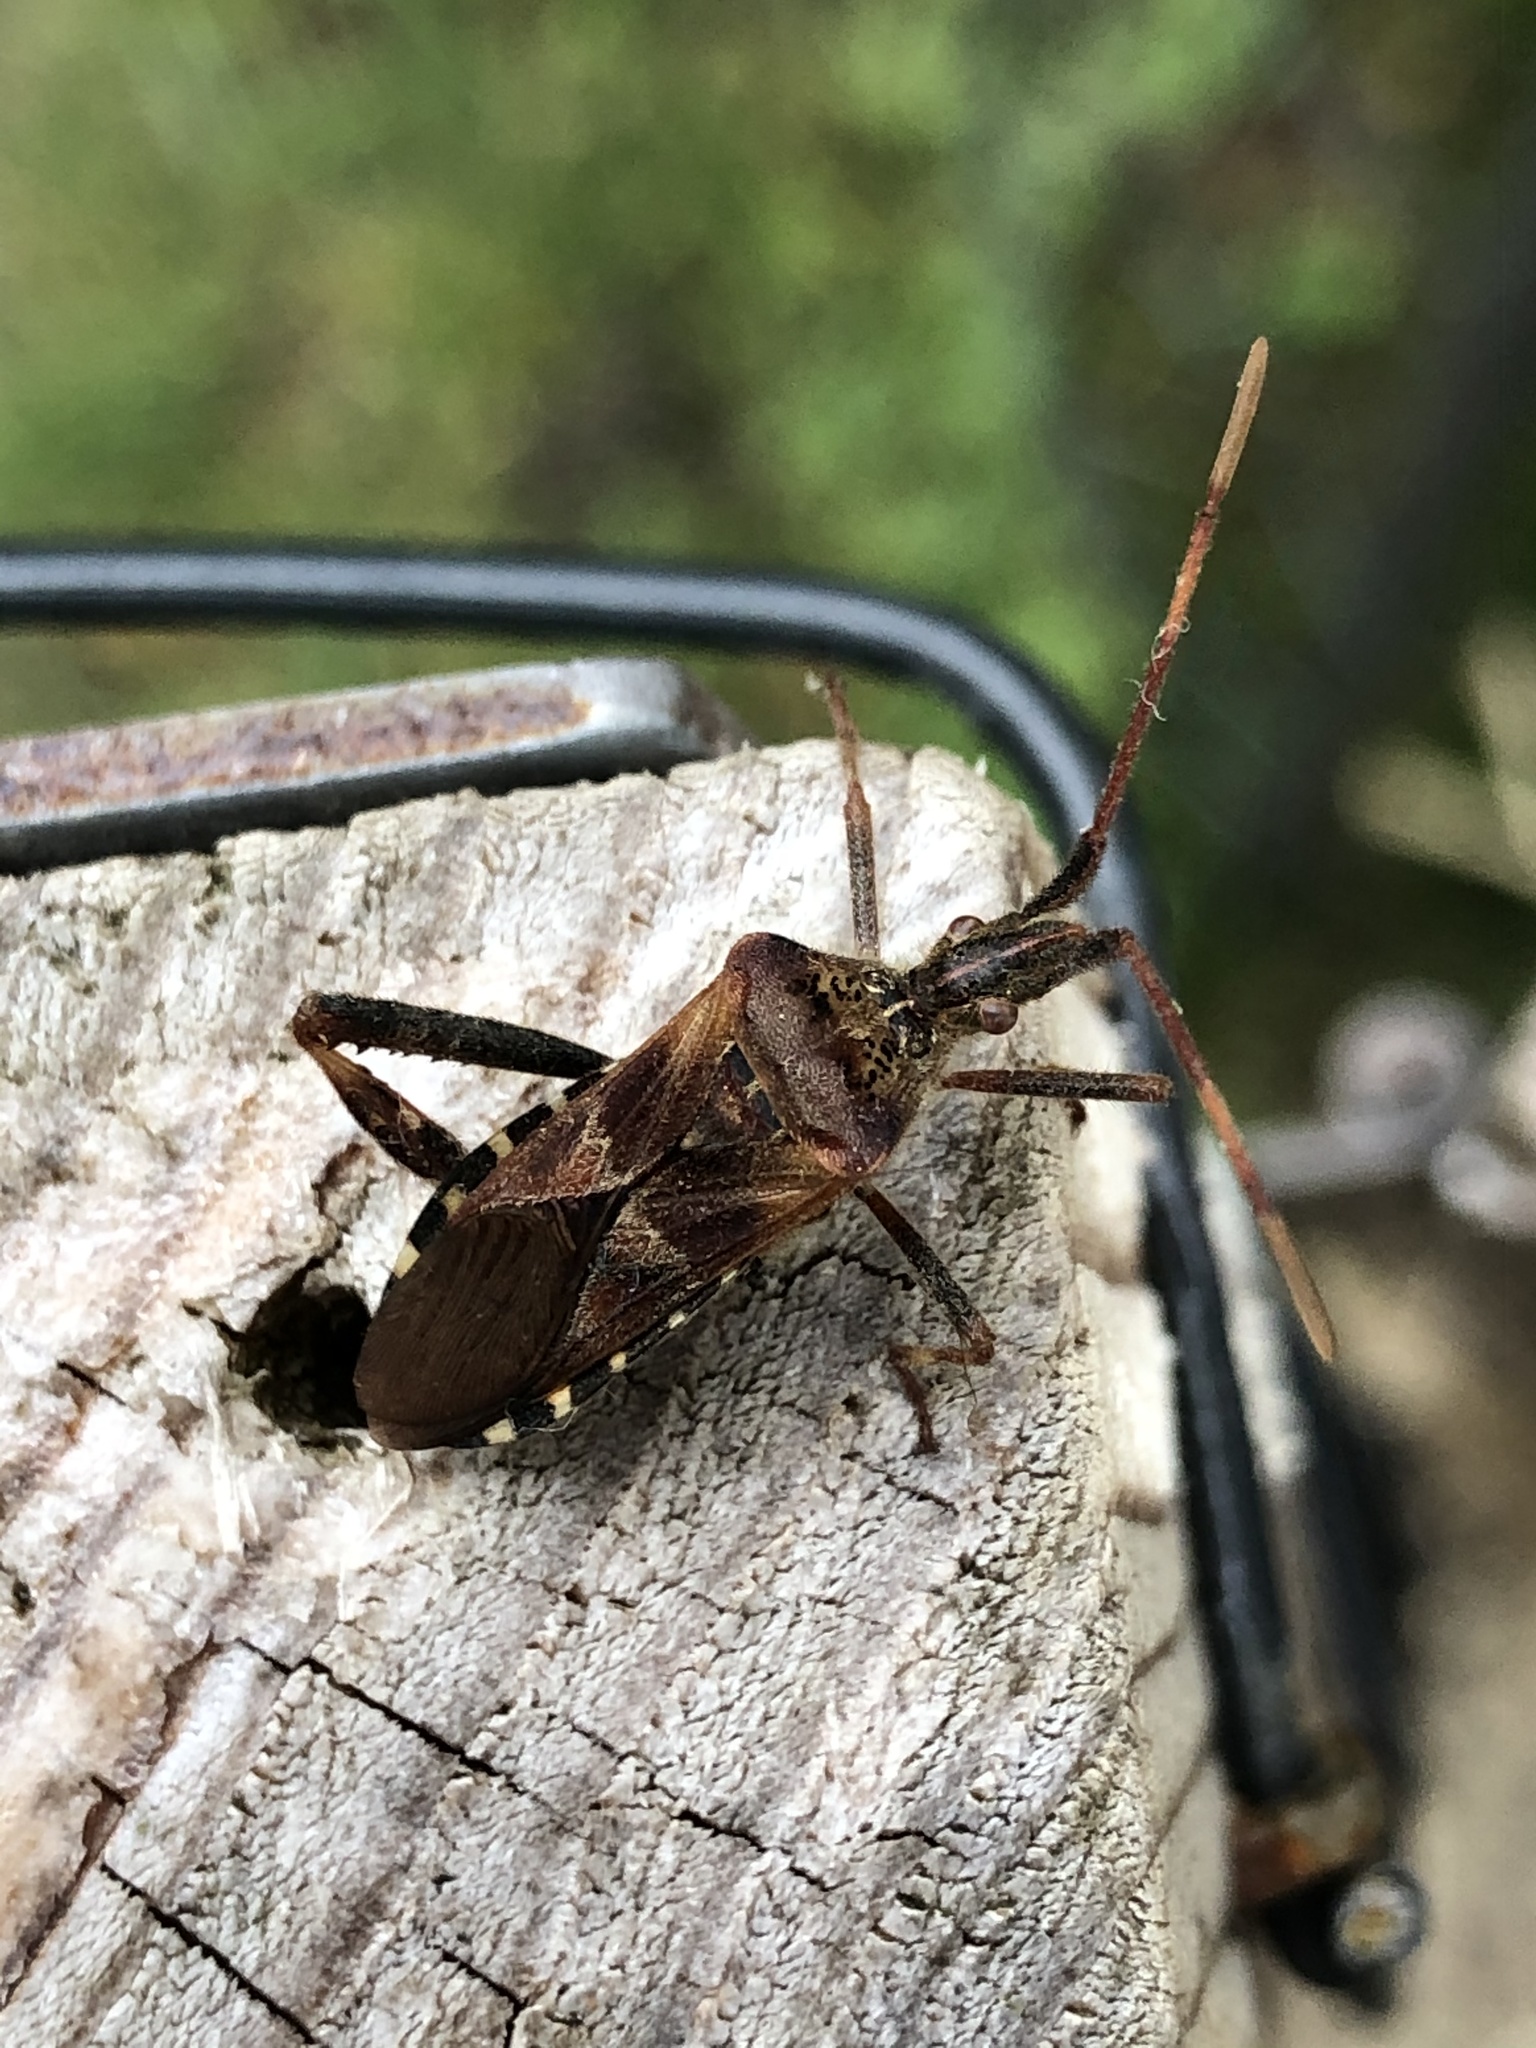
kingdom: Animalia
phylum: Arthropoda
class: Insecta
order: Hemiptera
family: Coreidae
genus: Leptoglossus
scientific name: Leptoglossus occidentalis
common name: Western conifer-seed bug
